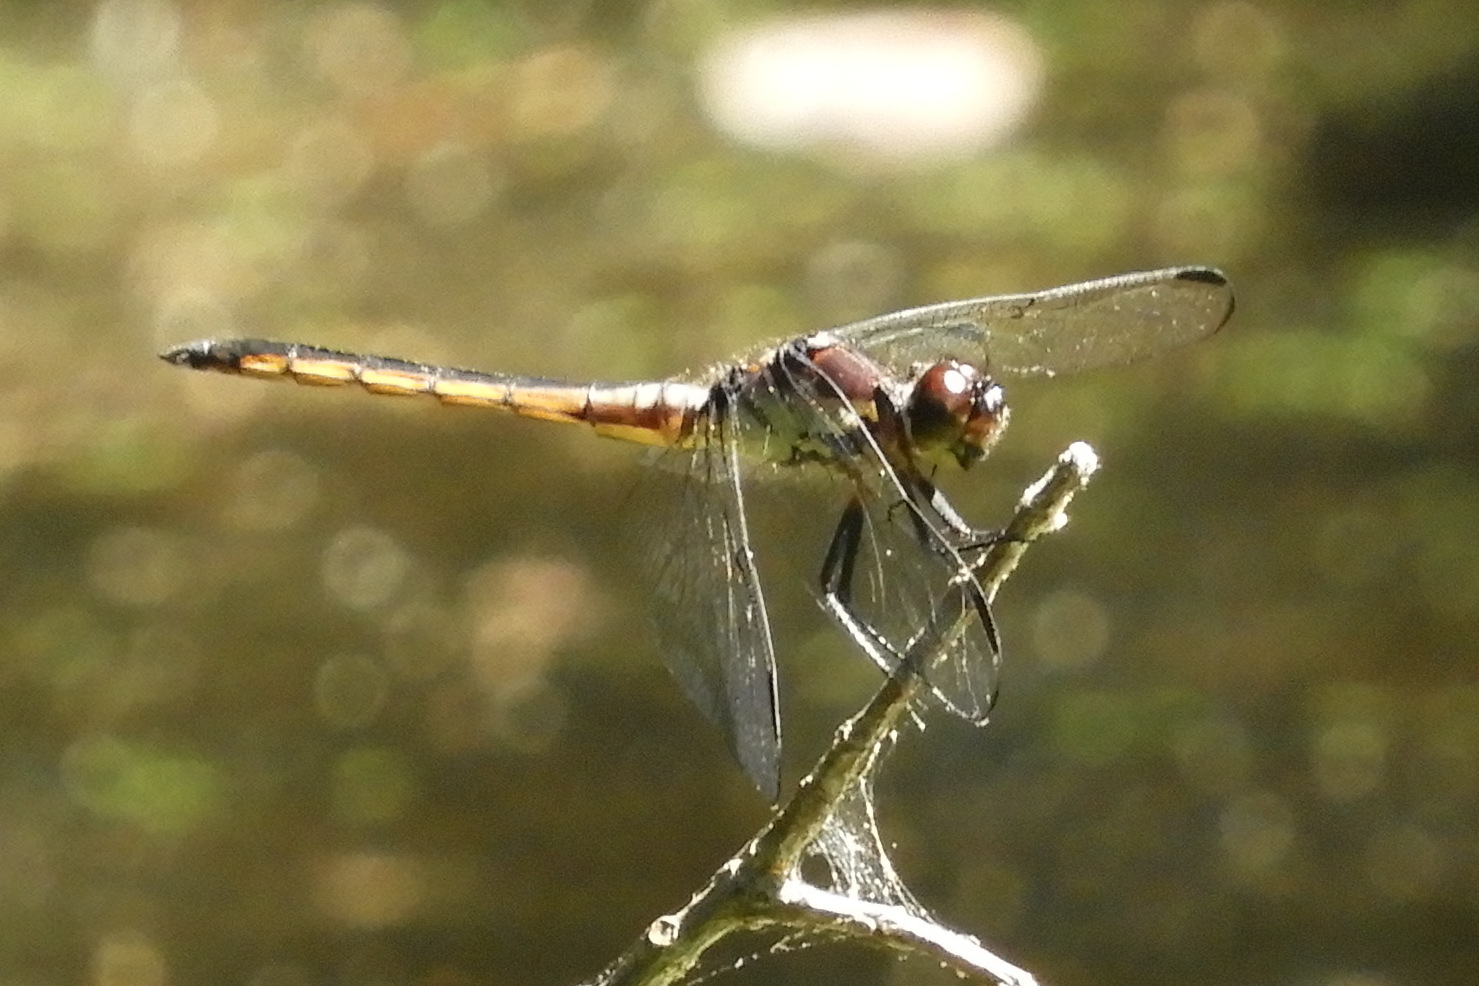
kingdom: Animalia
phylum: Arthropoda
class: Insecta
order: Odonata
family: Libellulidae
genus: Libellula
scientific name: Libellula incesta
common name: Slaty skimmer
